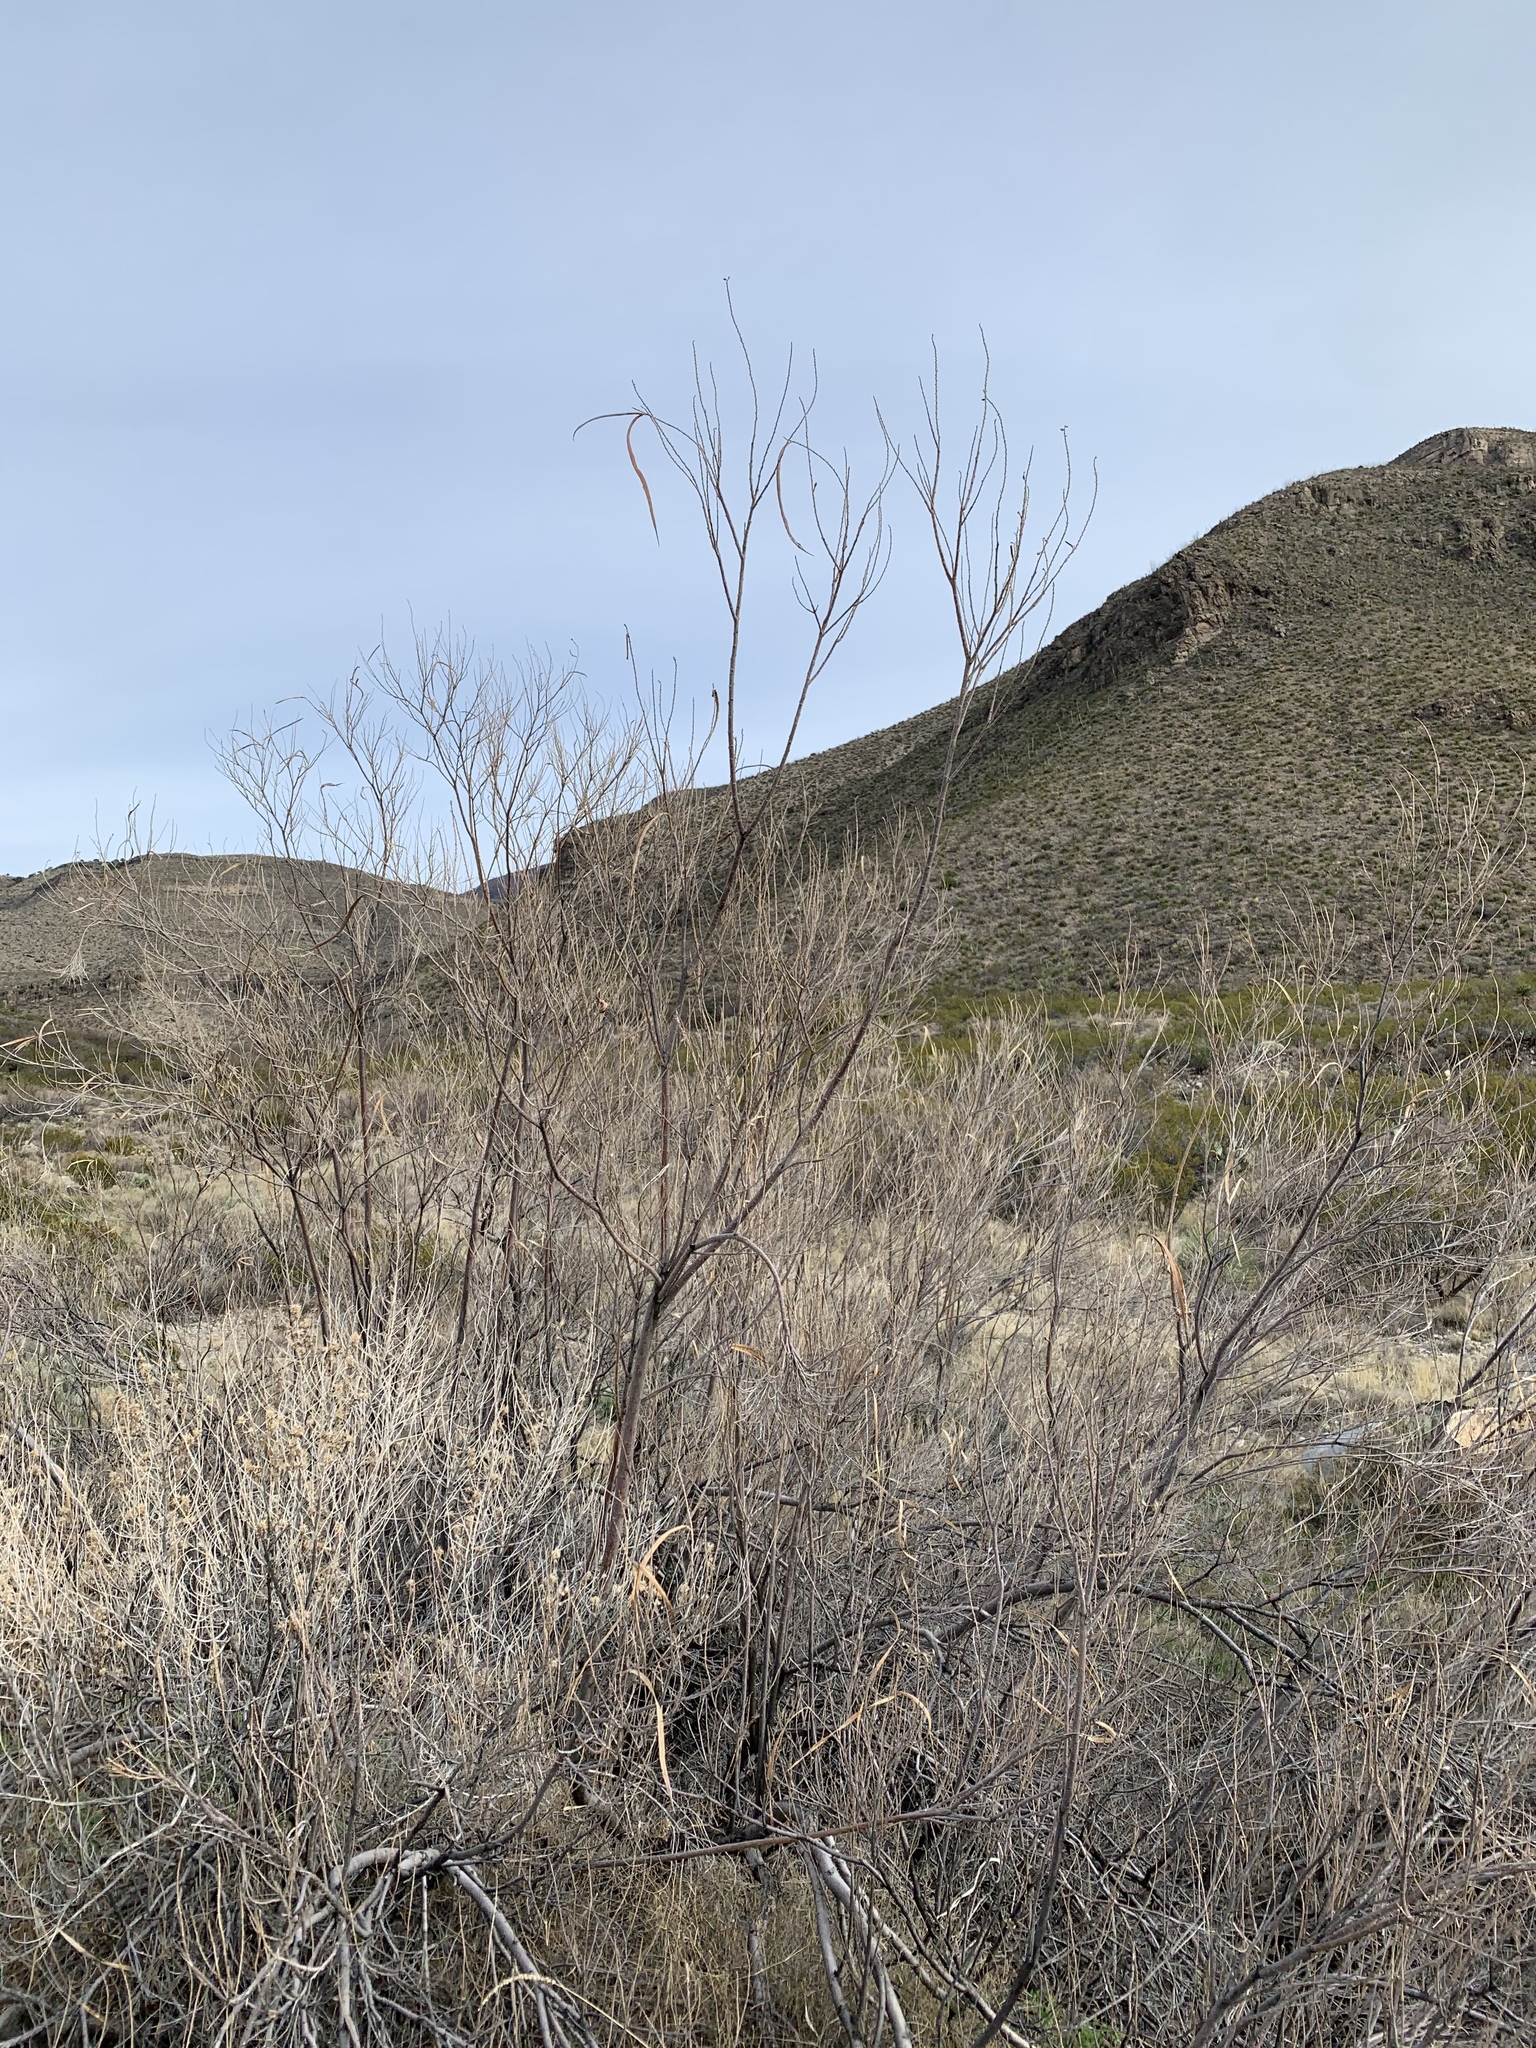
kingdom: Plantae
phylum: Tracheophyta
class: Magnoliopsida
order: Lamiales
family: Bignoniaceae
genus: Chilopsis
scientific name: Chilopsis linearis
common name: Desert-willow
